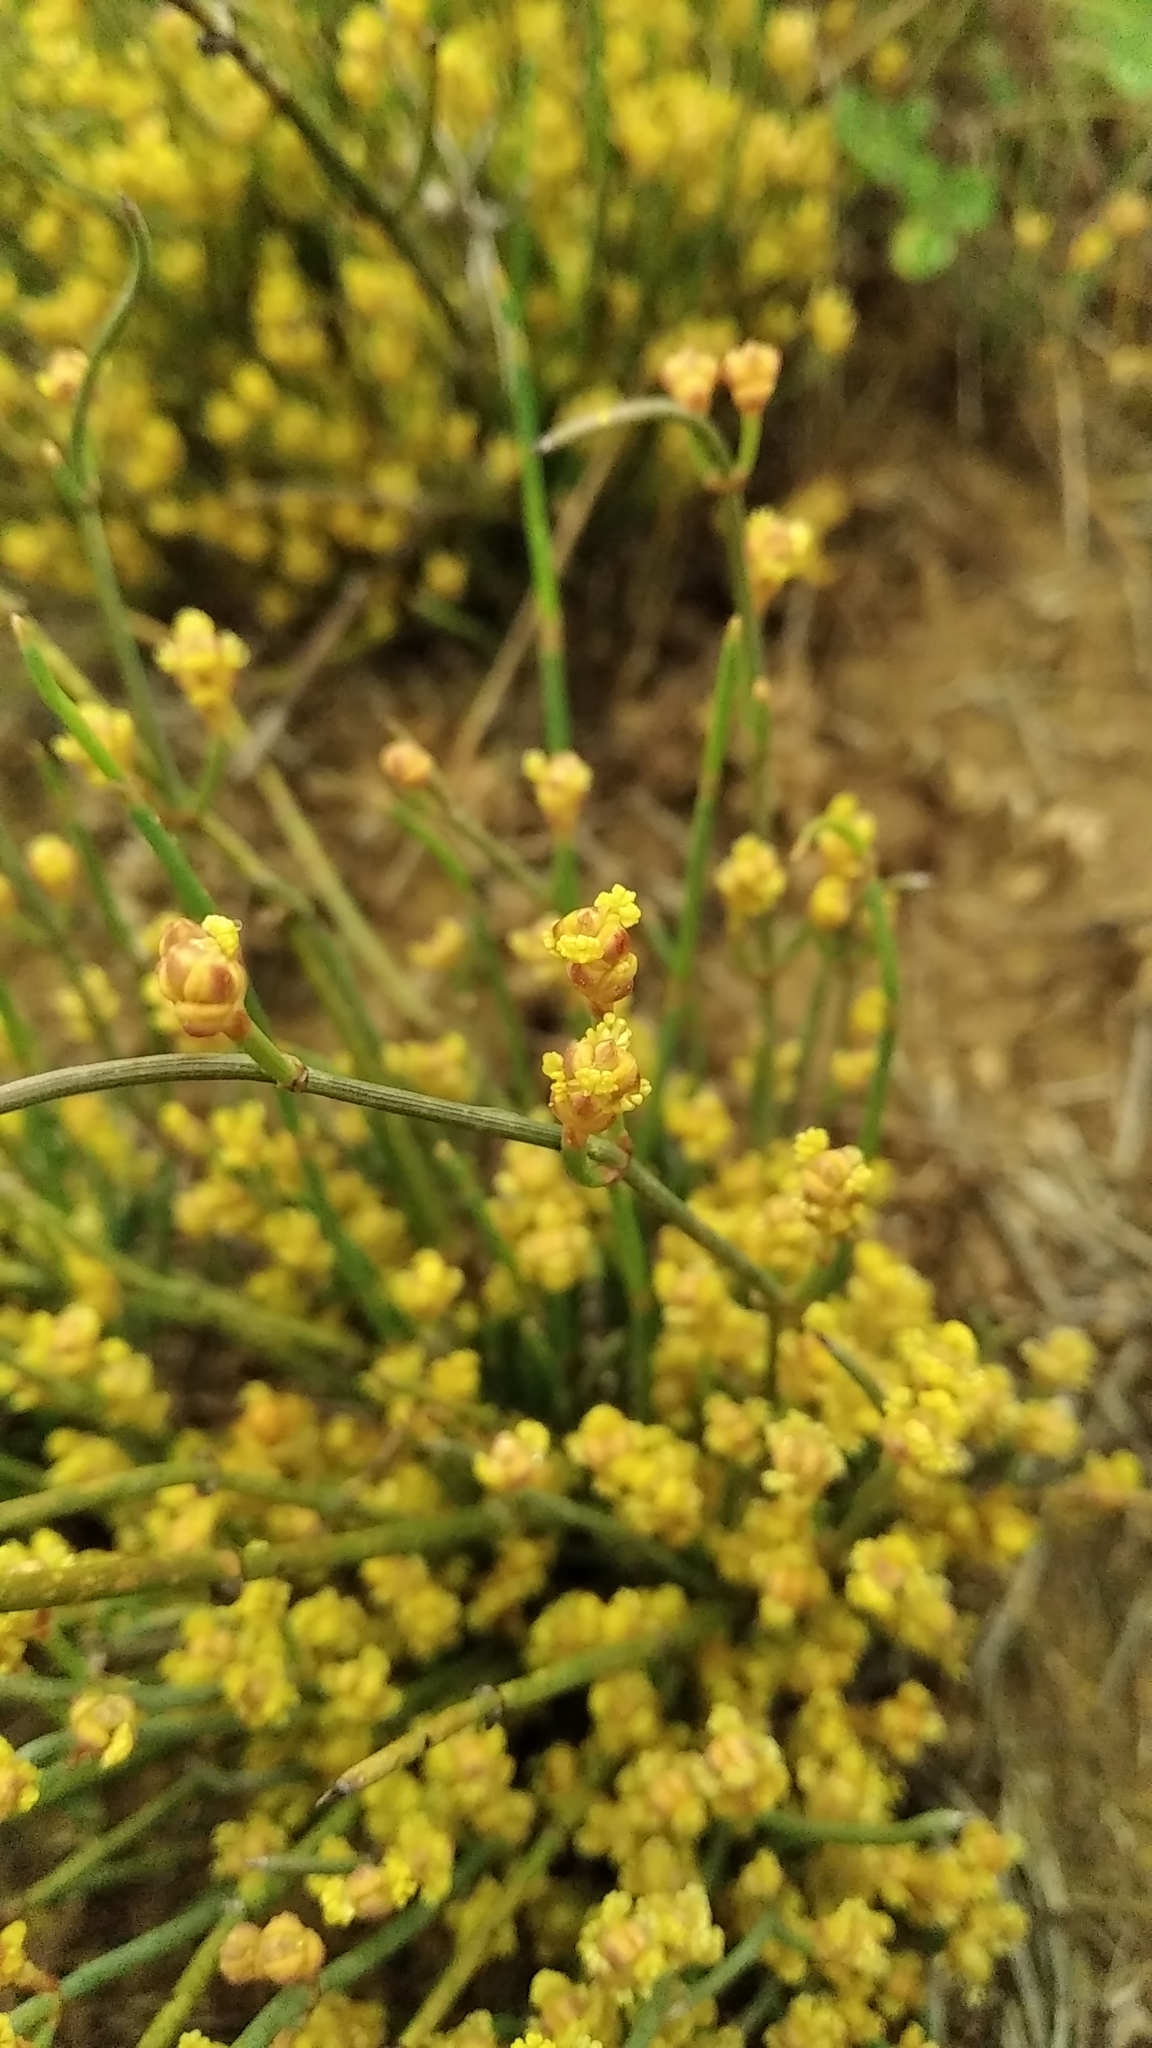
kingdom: Plantae
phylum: Tracheophyta
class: Gnetopsida
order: Ephedrales
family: Ephedraceae
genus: Ephedra
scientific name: Ephedra distachya
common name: Sea grape
